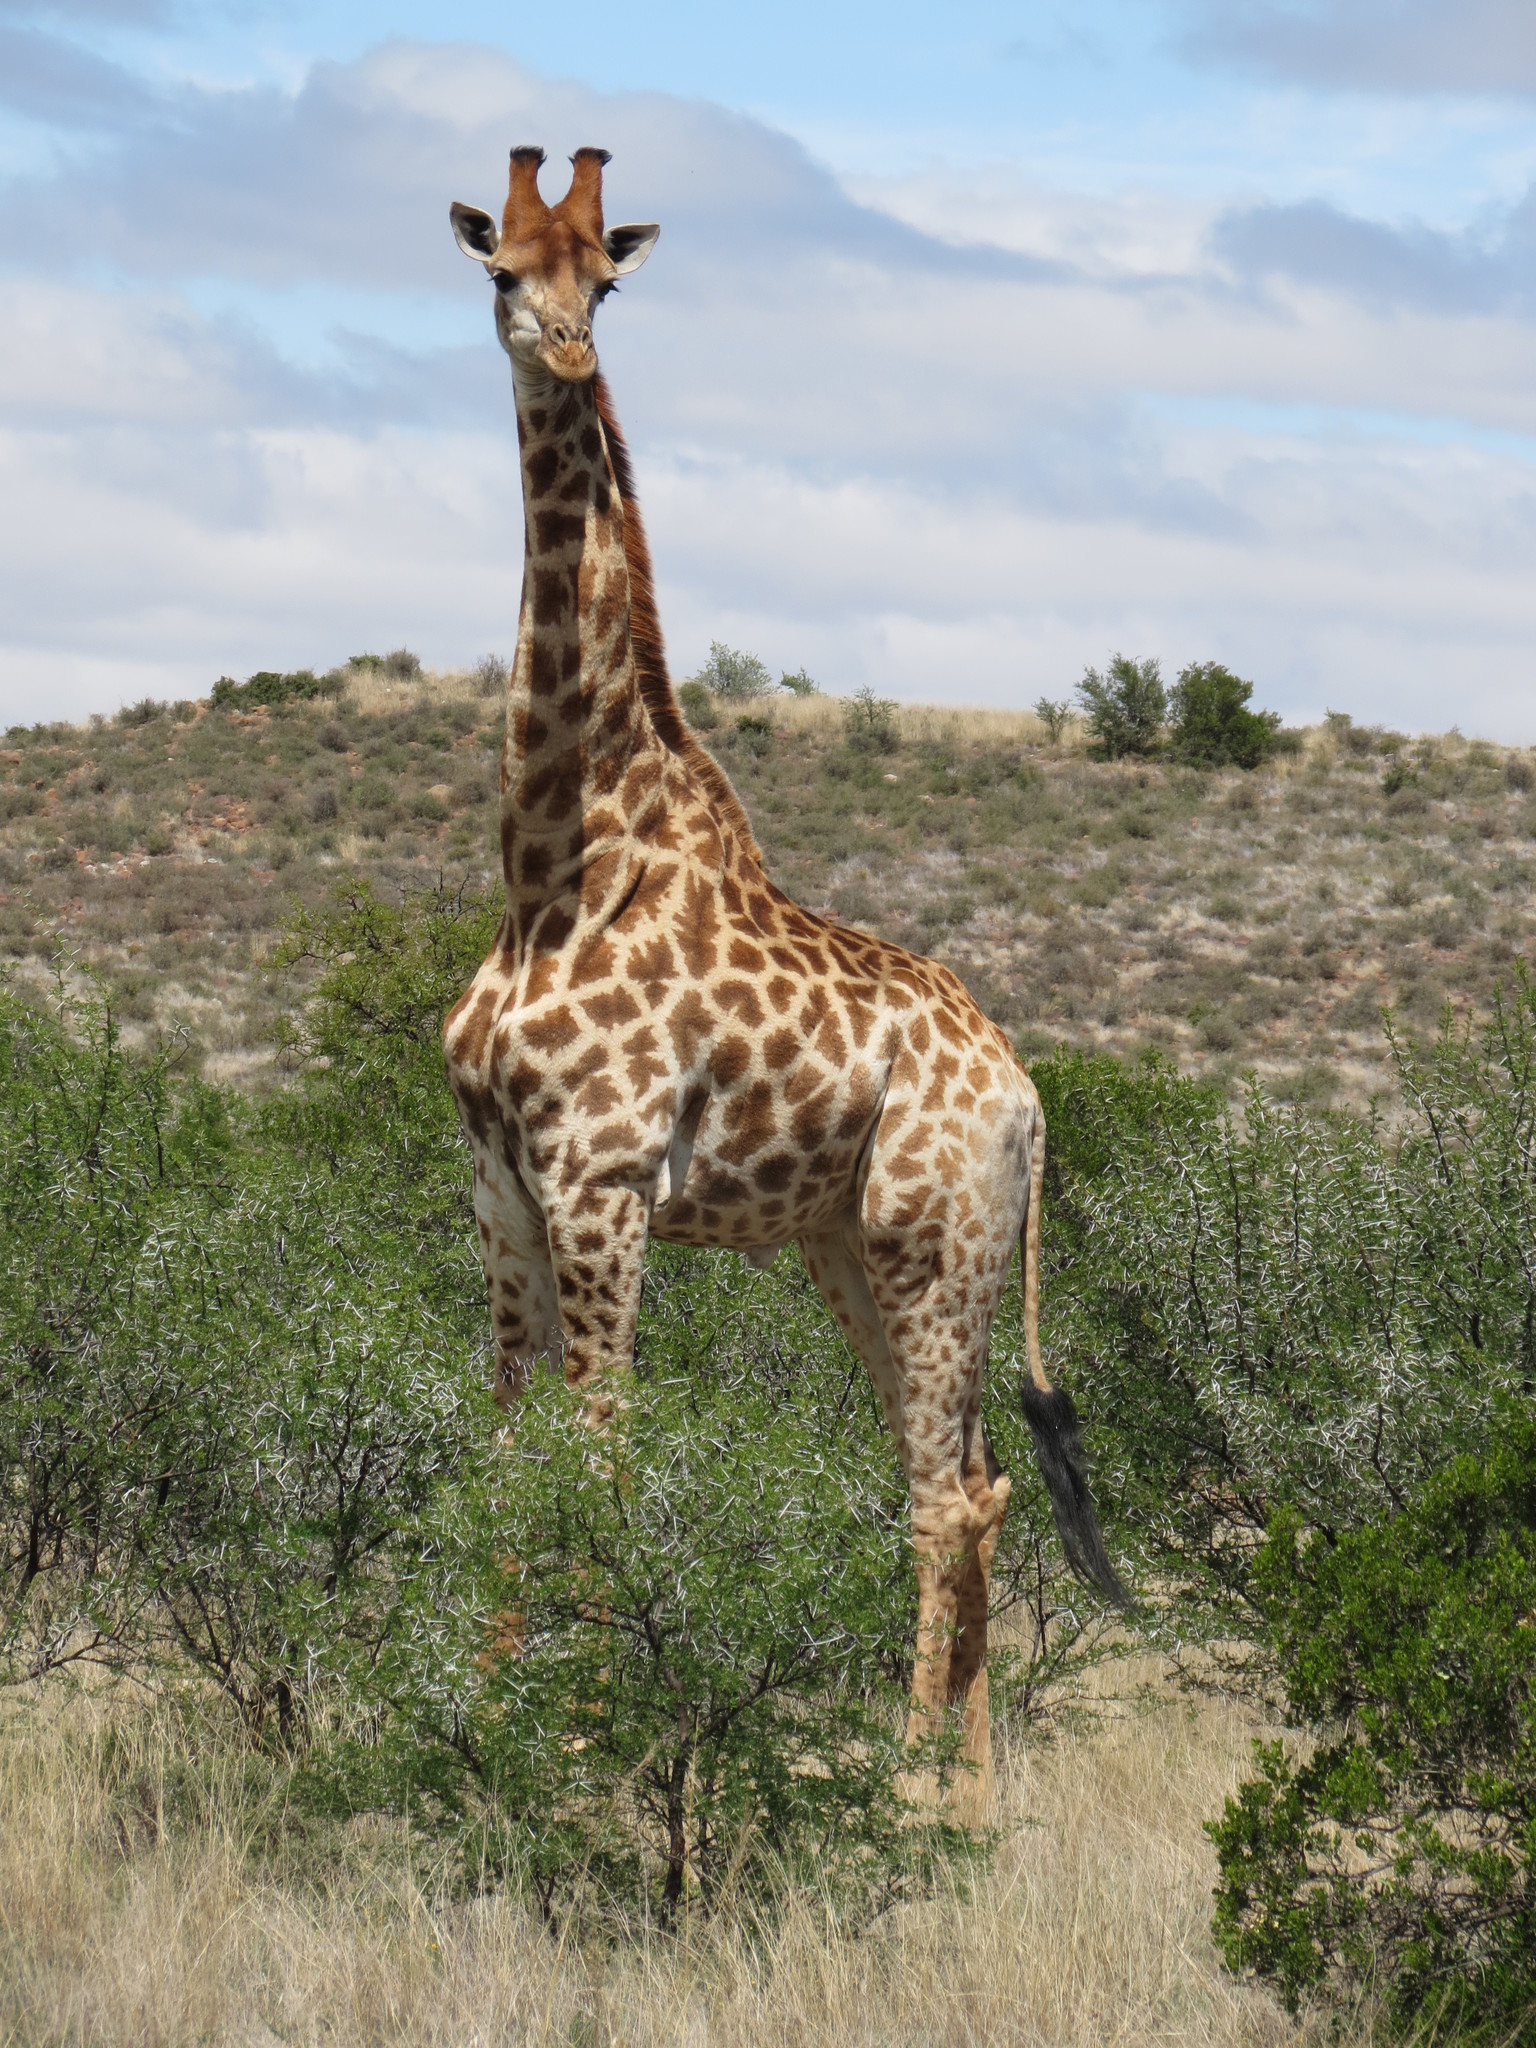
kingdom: Animalia
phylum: Chordata
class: Mammalia
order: Artiodactyla
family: Giraffidae
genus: Giraffa
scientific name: Giraffa giraffa
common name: Southern giraffe
